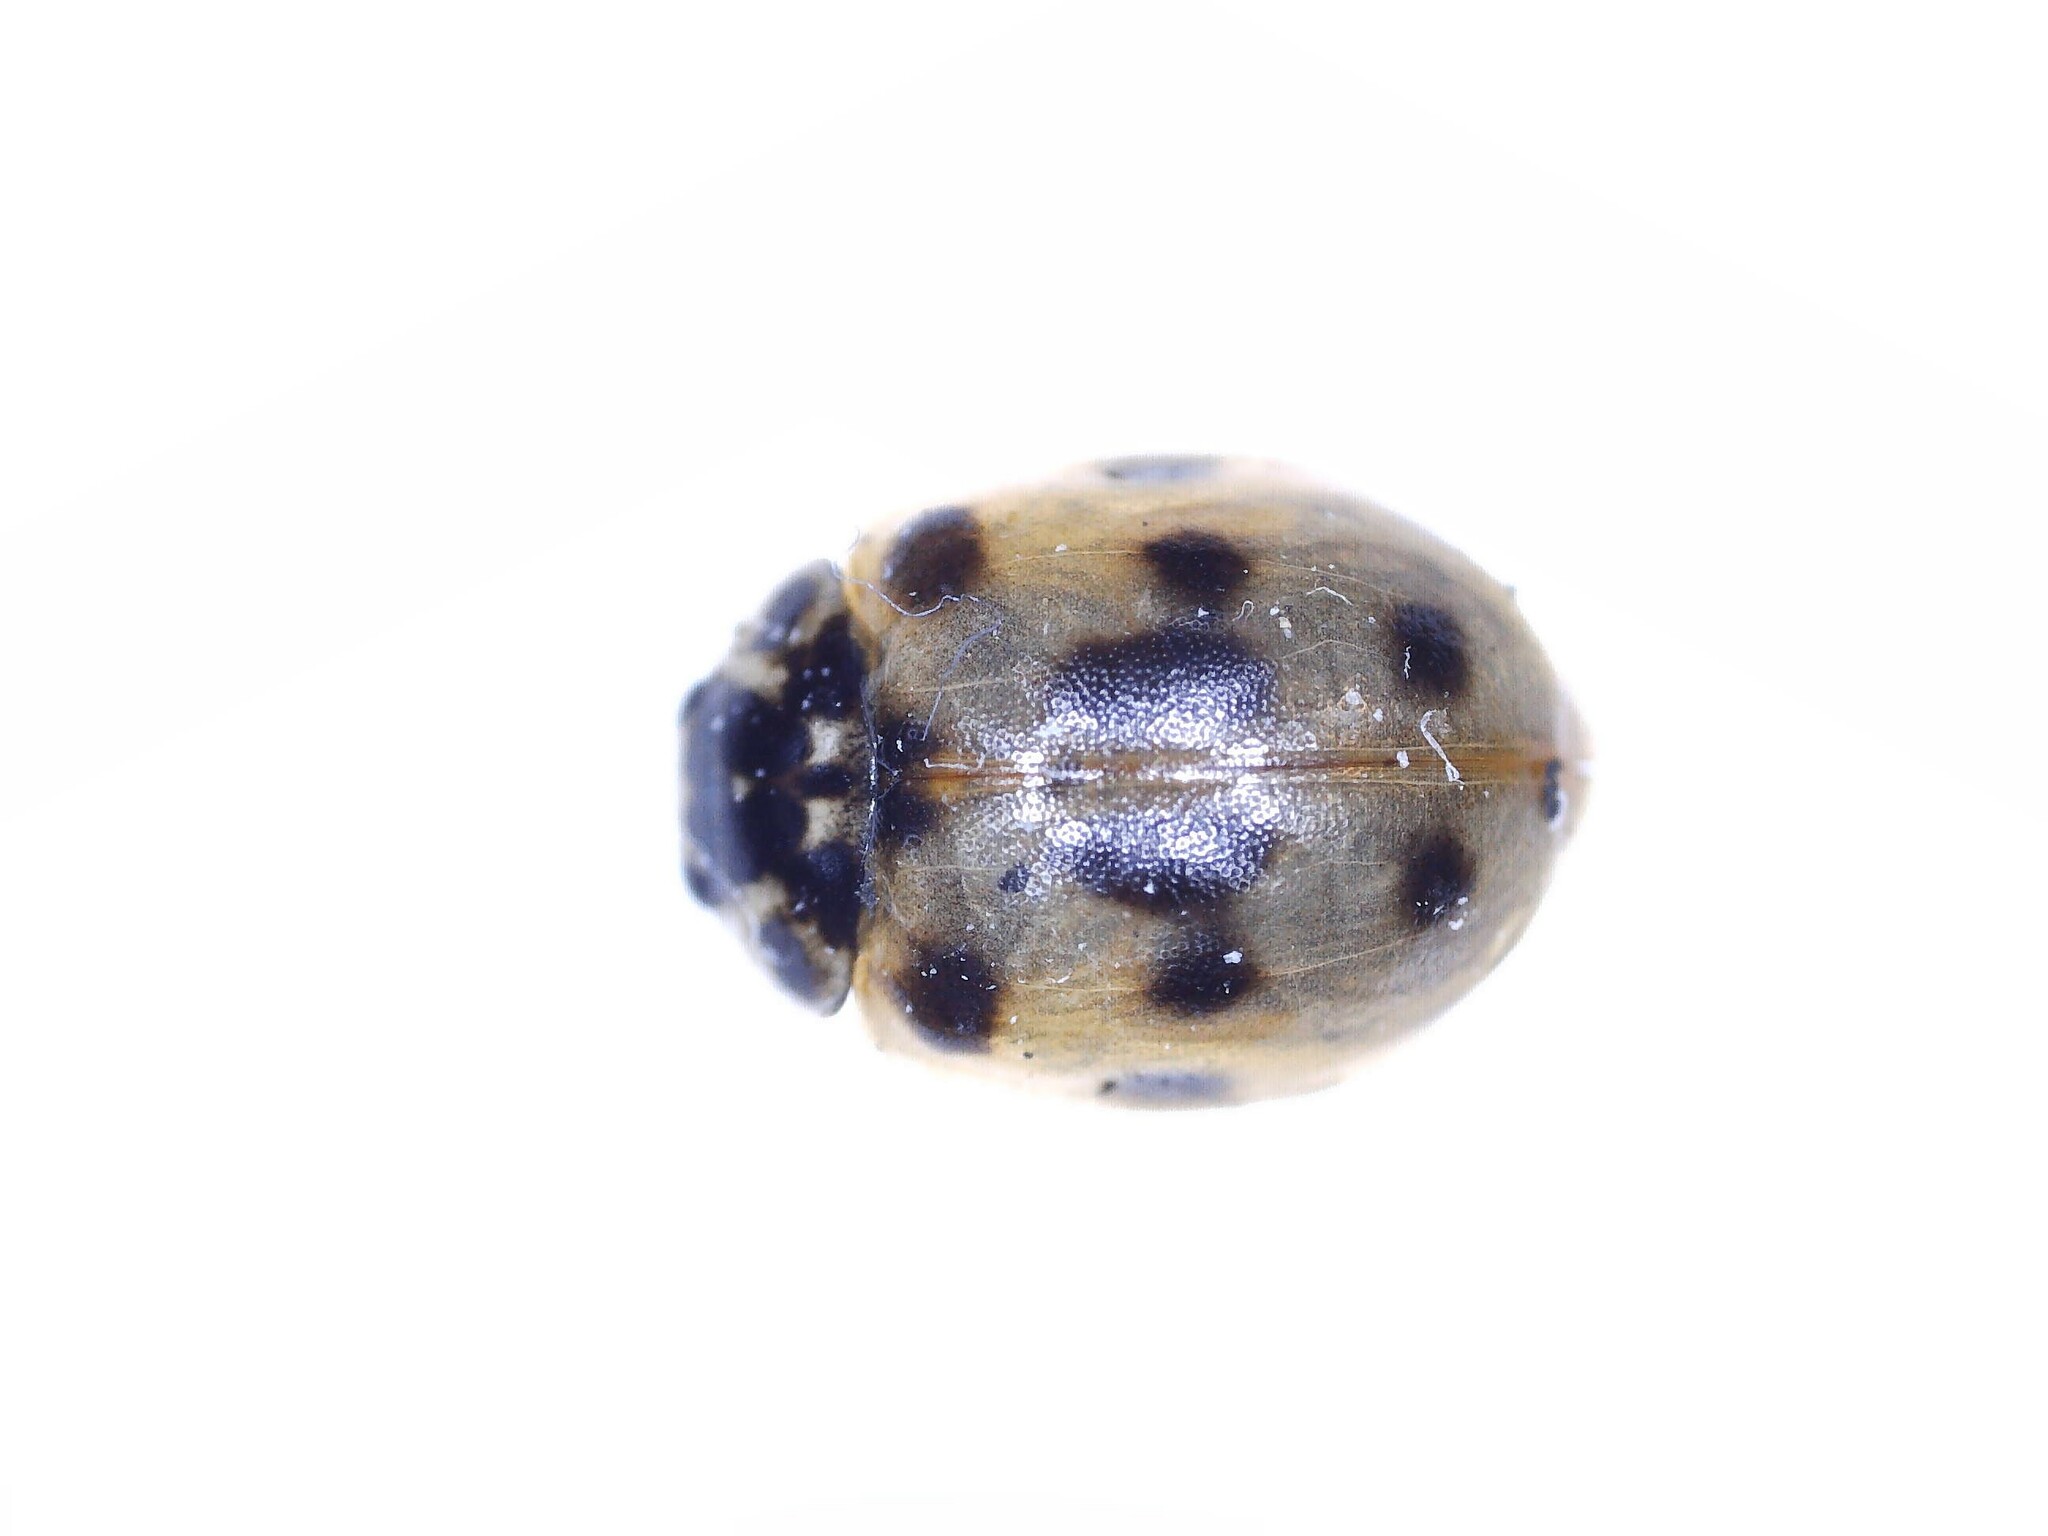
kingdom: Animalia
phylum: Arthropoda
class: Insecta
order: Coleoptera
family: Coccinellidae
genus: Adalia
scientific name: Adalia decempunctata
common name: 10-spot ladybird
